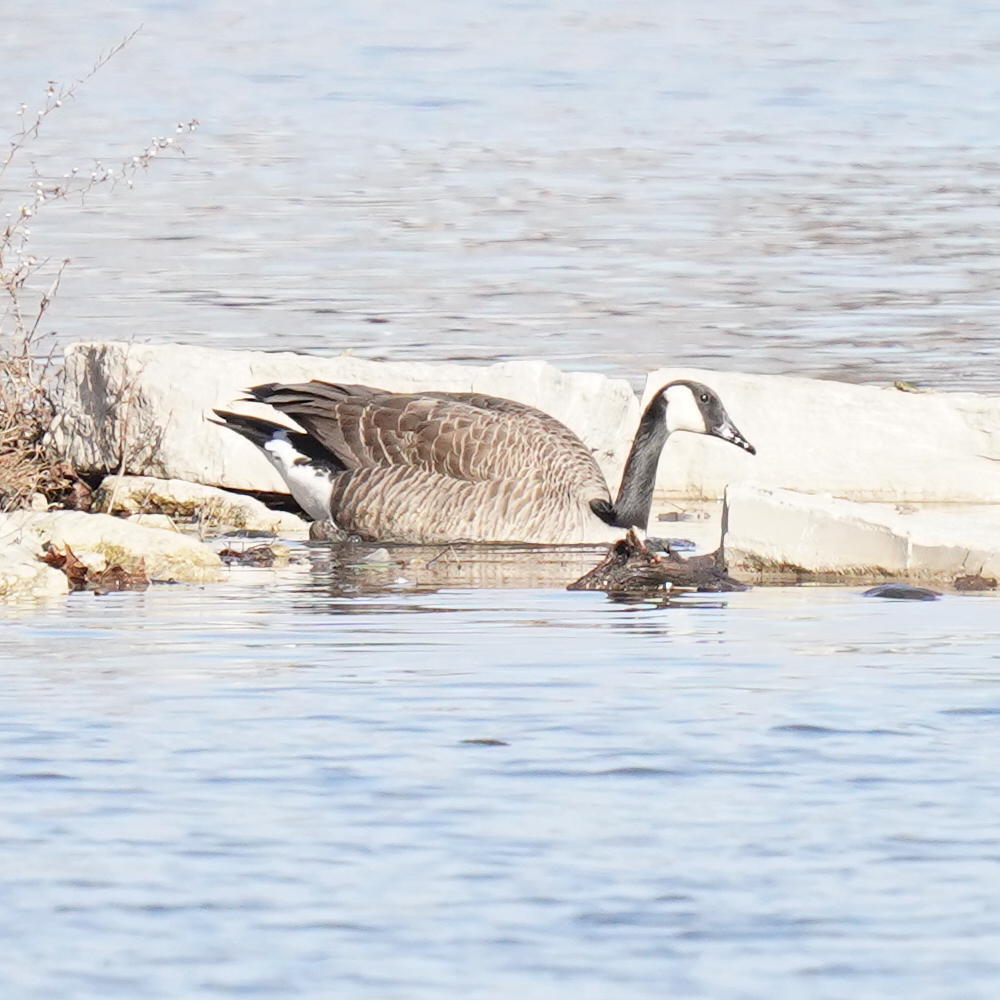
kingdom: Animalia
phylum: Chordata
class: Aves
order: Anseriformes
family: Anatidae
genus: Branta
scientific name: Branta canadensis
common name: Canada goose
